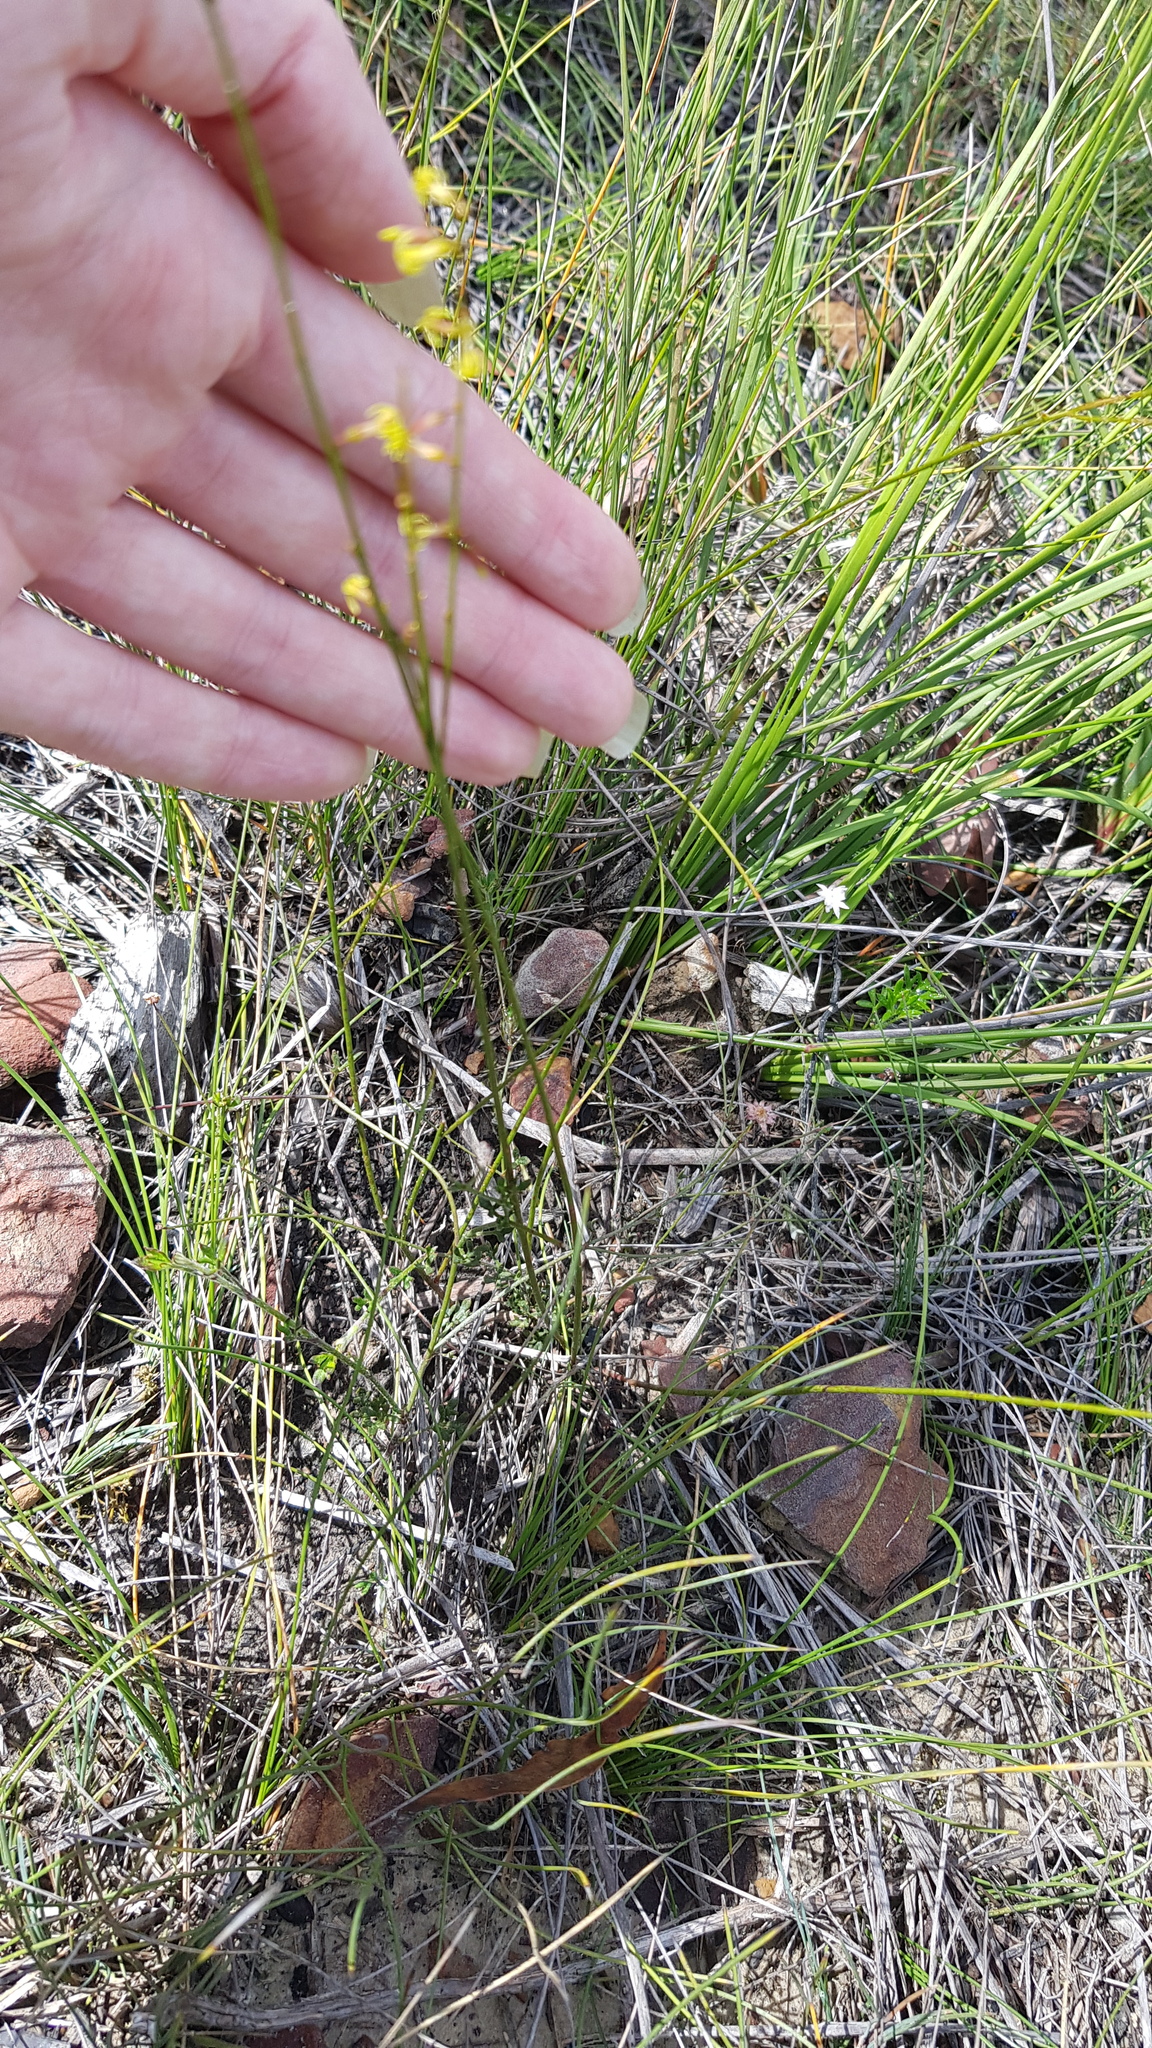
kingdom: Plantae
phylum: Tracheophyta
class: Magnoliopsida
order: Celastrales
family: Celastraceae
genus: Stackhousia
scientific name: Stackhousia nuda
